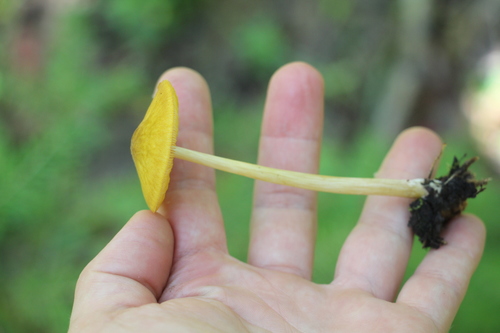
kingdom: Fungi
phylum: Basidiomycota
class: Agaricomycetes
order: Agaricales
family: Pluteaceae
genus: Pluteus
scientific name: Pluteus leoninus
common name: Lion shield
